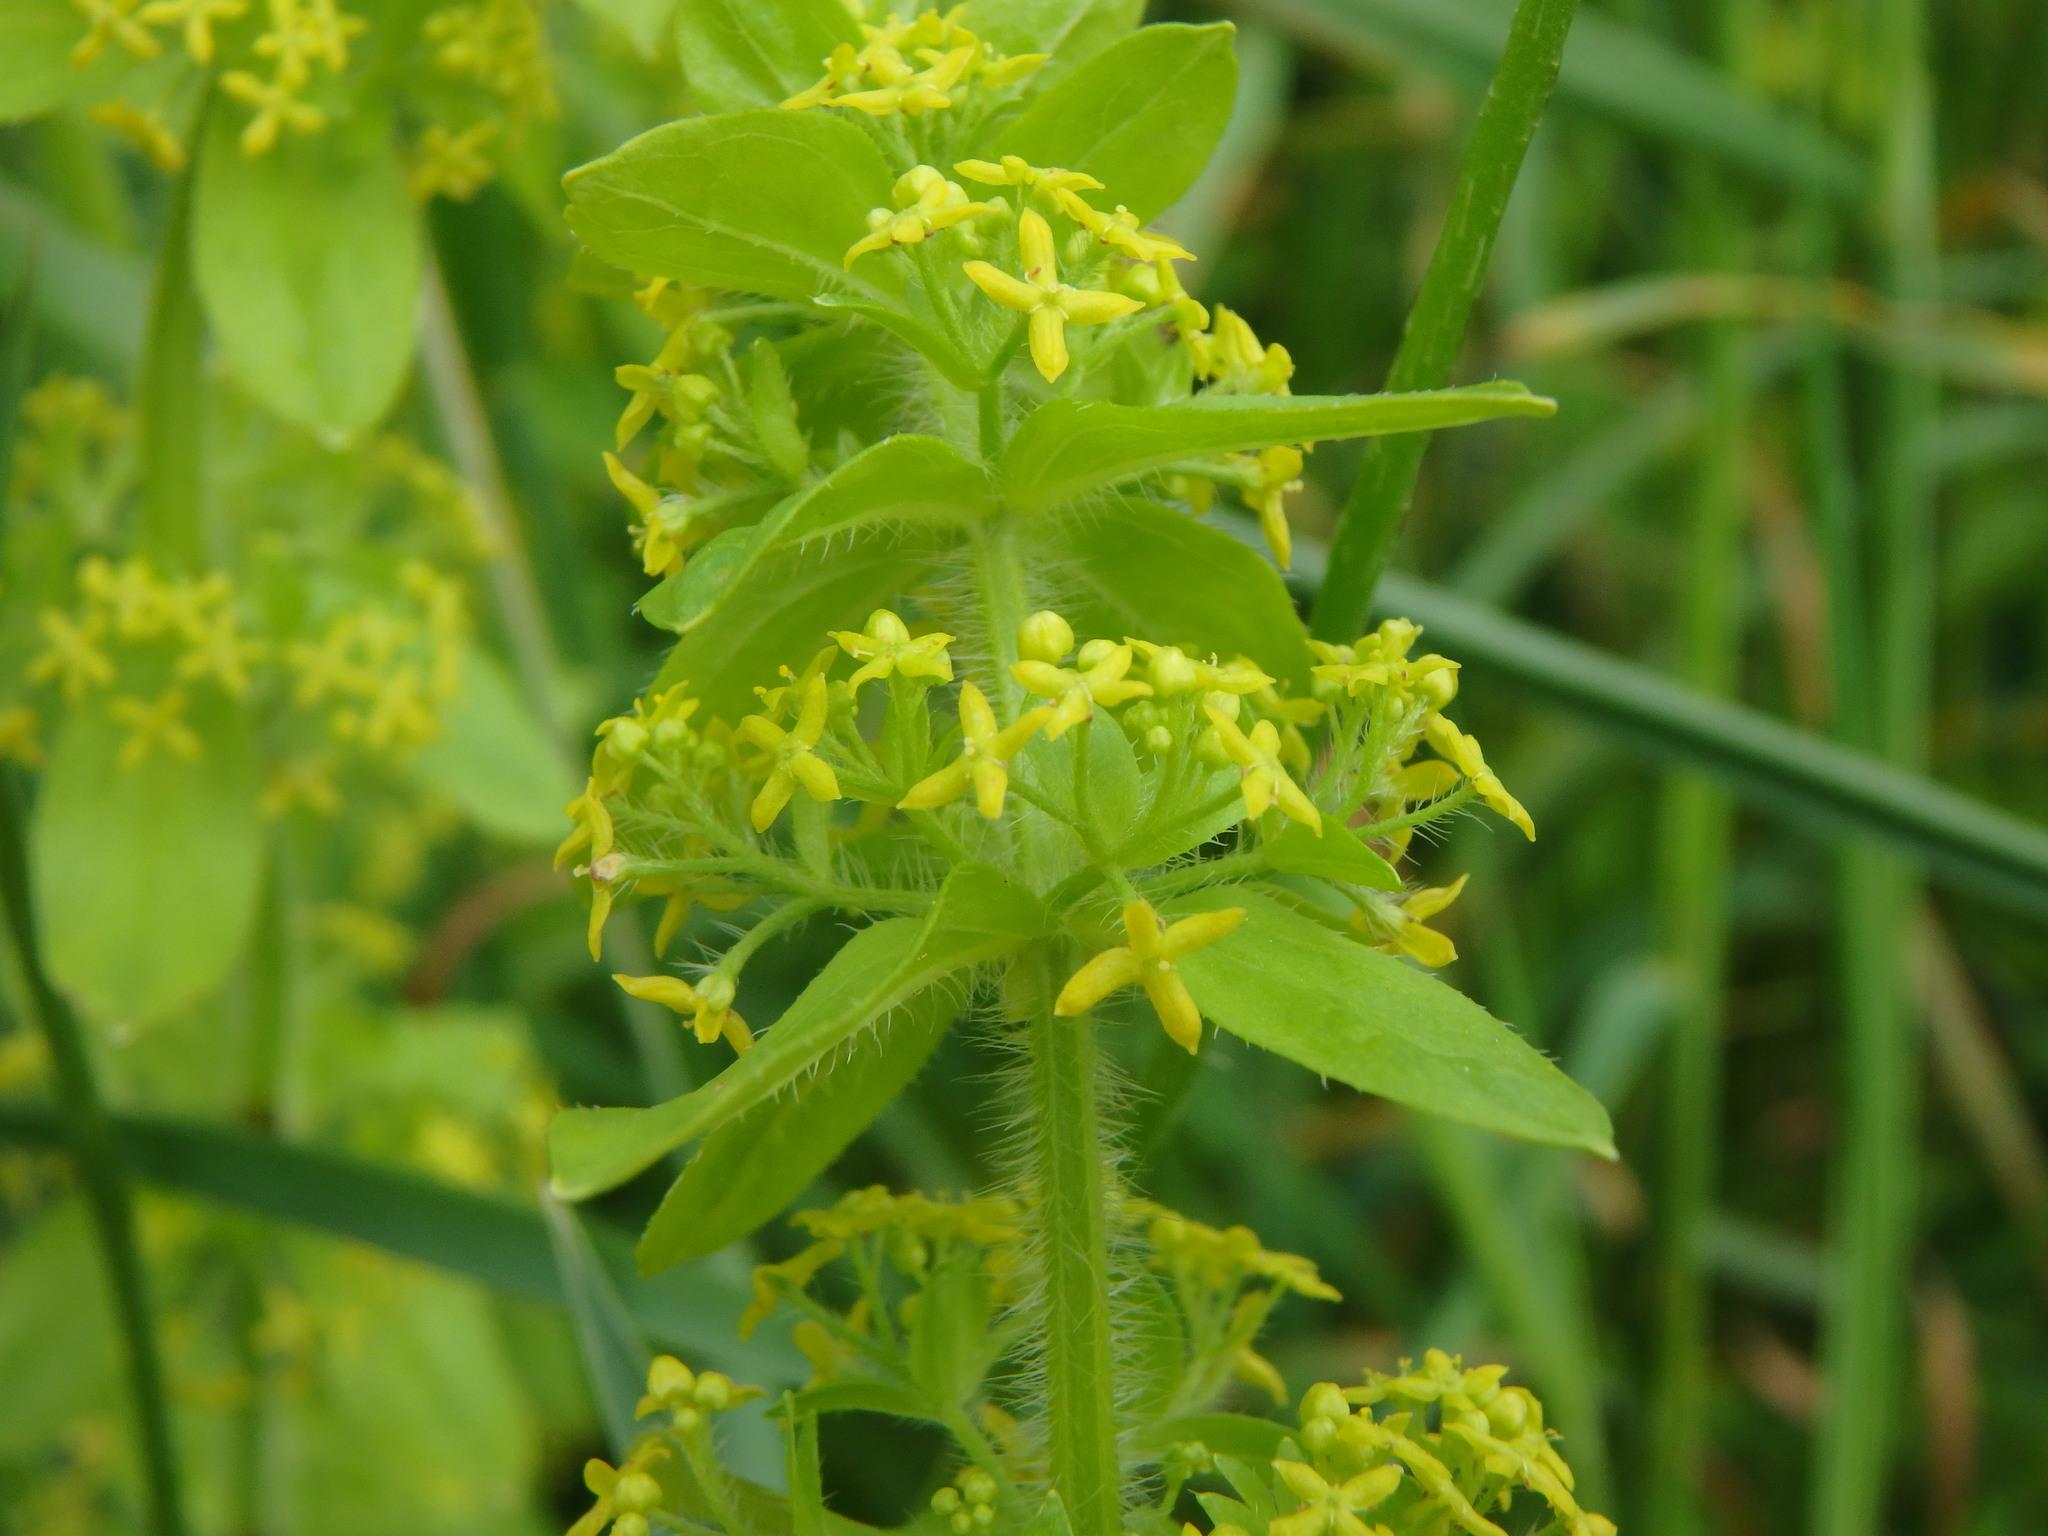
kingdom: Plantae
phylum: Tracheophyta
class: Magnoliopsida
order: Gentianales
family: Rubiaceae
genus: Cruciata
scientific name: Cruciata laevipes
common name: Crosswort
